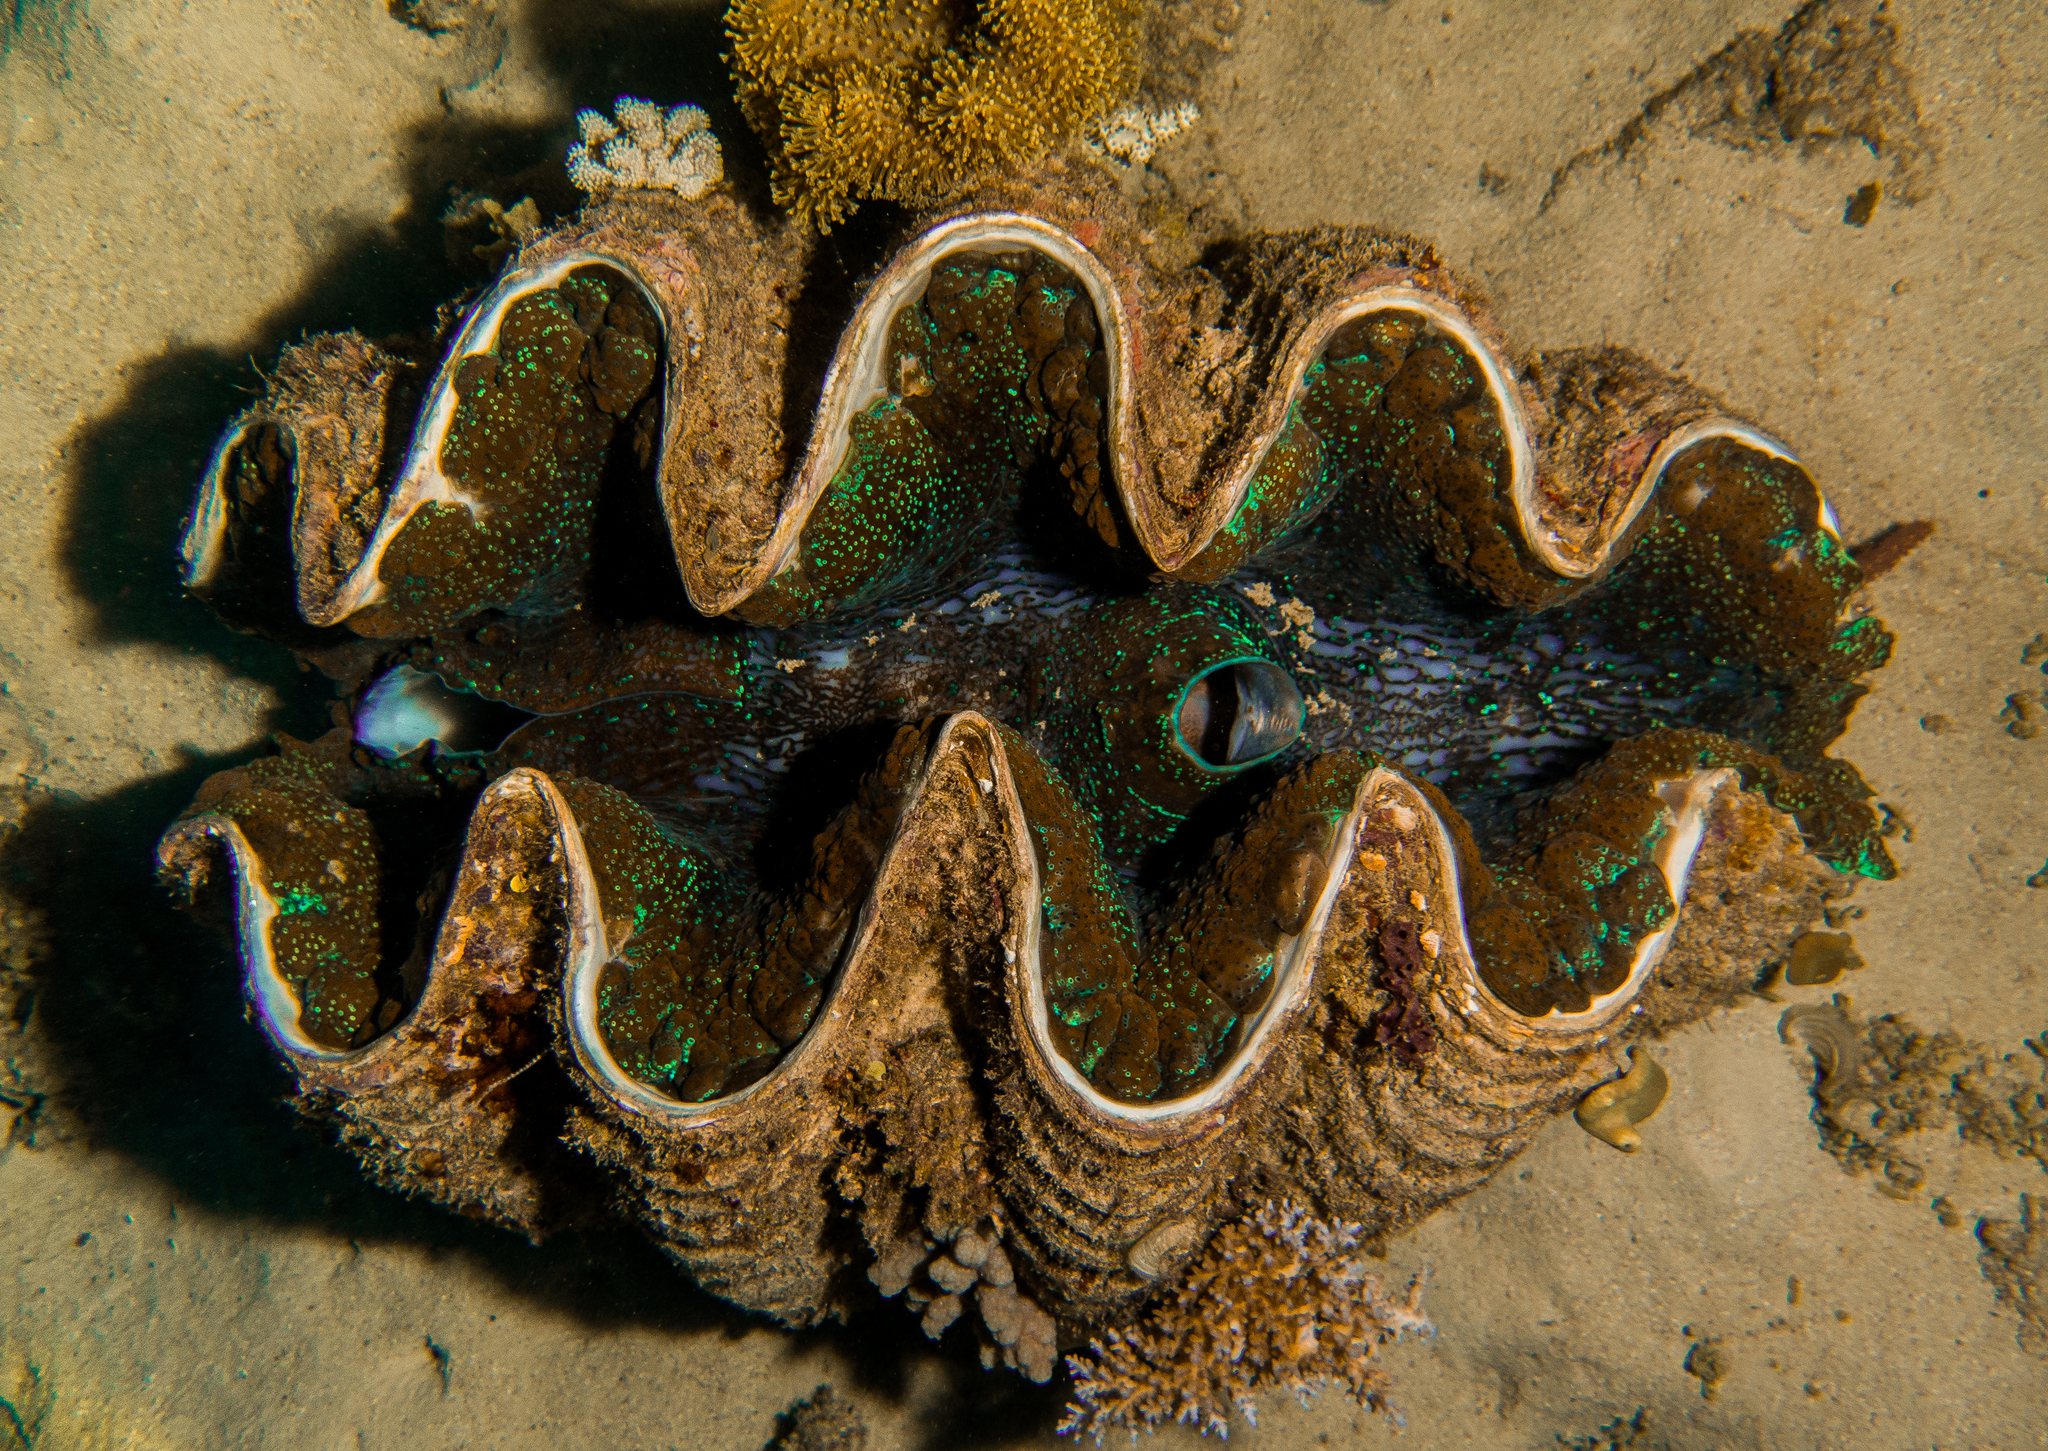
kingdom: Animalia
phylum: Mollusca
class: Bivalvia
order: Cardiida
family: Cardiidae
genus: Tridacna
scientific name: Tridacna gigas
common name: Giant clam
